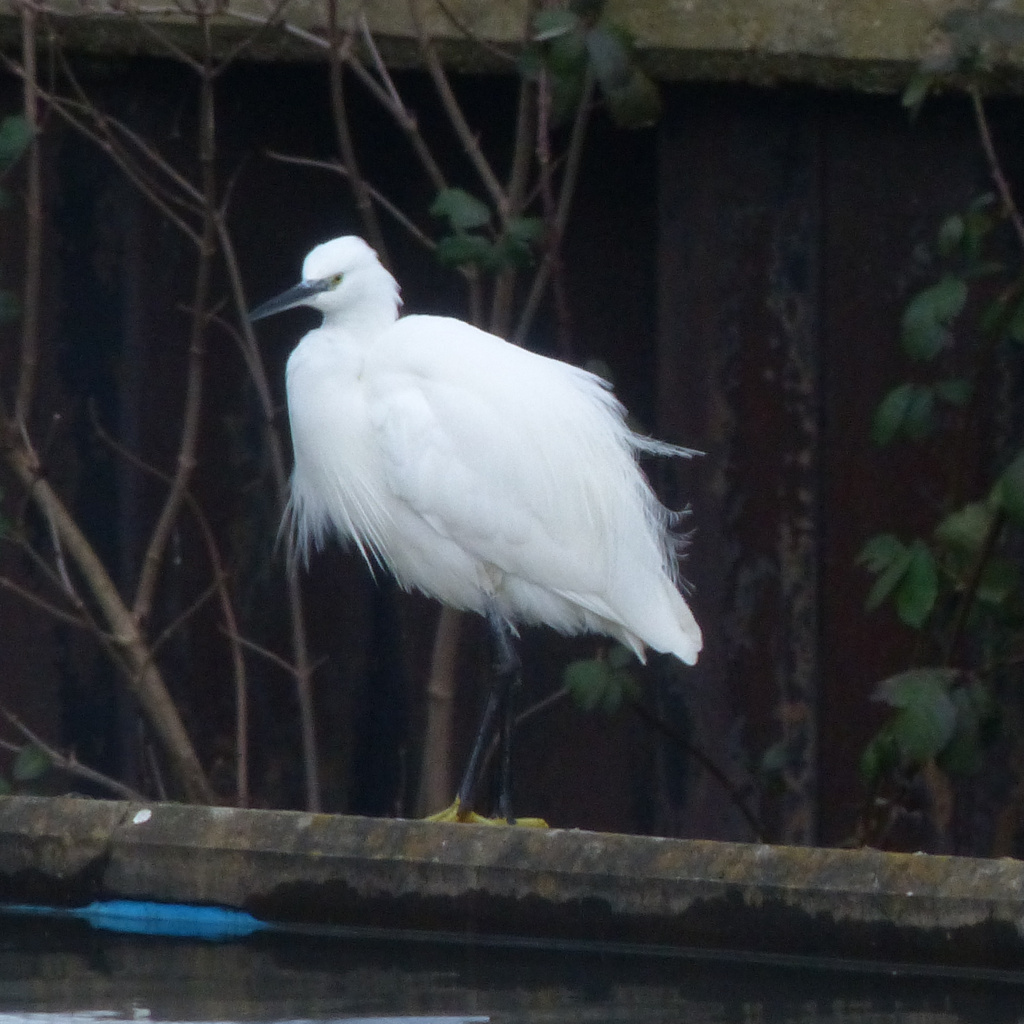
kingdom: Animalia
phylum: Chordata
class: Aves
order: Pelecaniformes
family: Ardeidae
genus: Egretta
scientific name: Egretta garzetta
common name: Little egret
